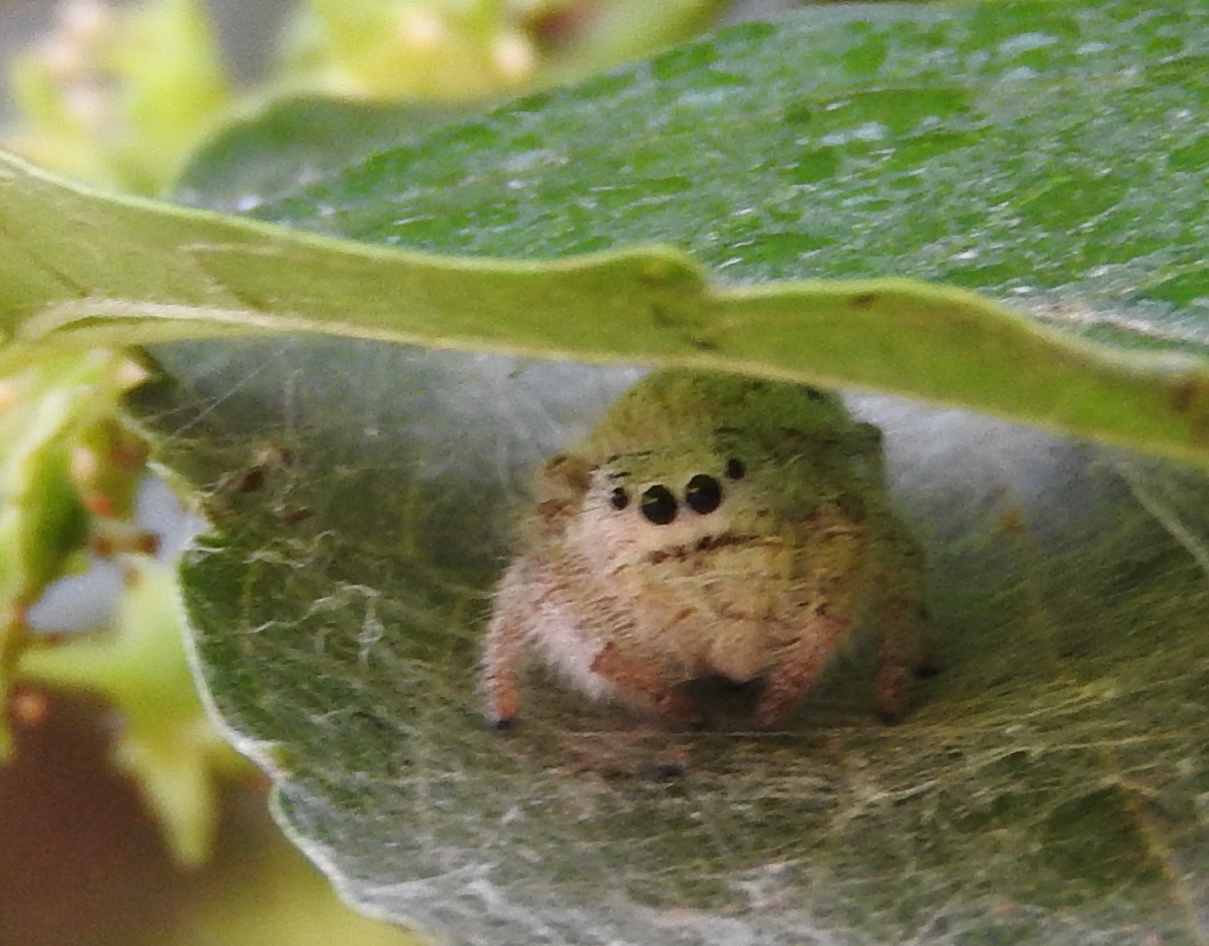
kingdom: Animalia
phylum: Arthropoda
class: Arachnida
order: Araneae
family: Salticidae
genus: Paraphidippus
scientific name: Paraphidippus fartilis
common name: Jumping spiders
